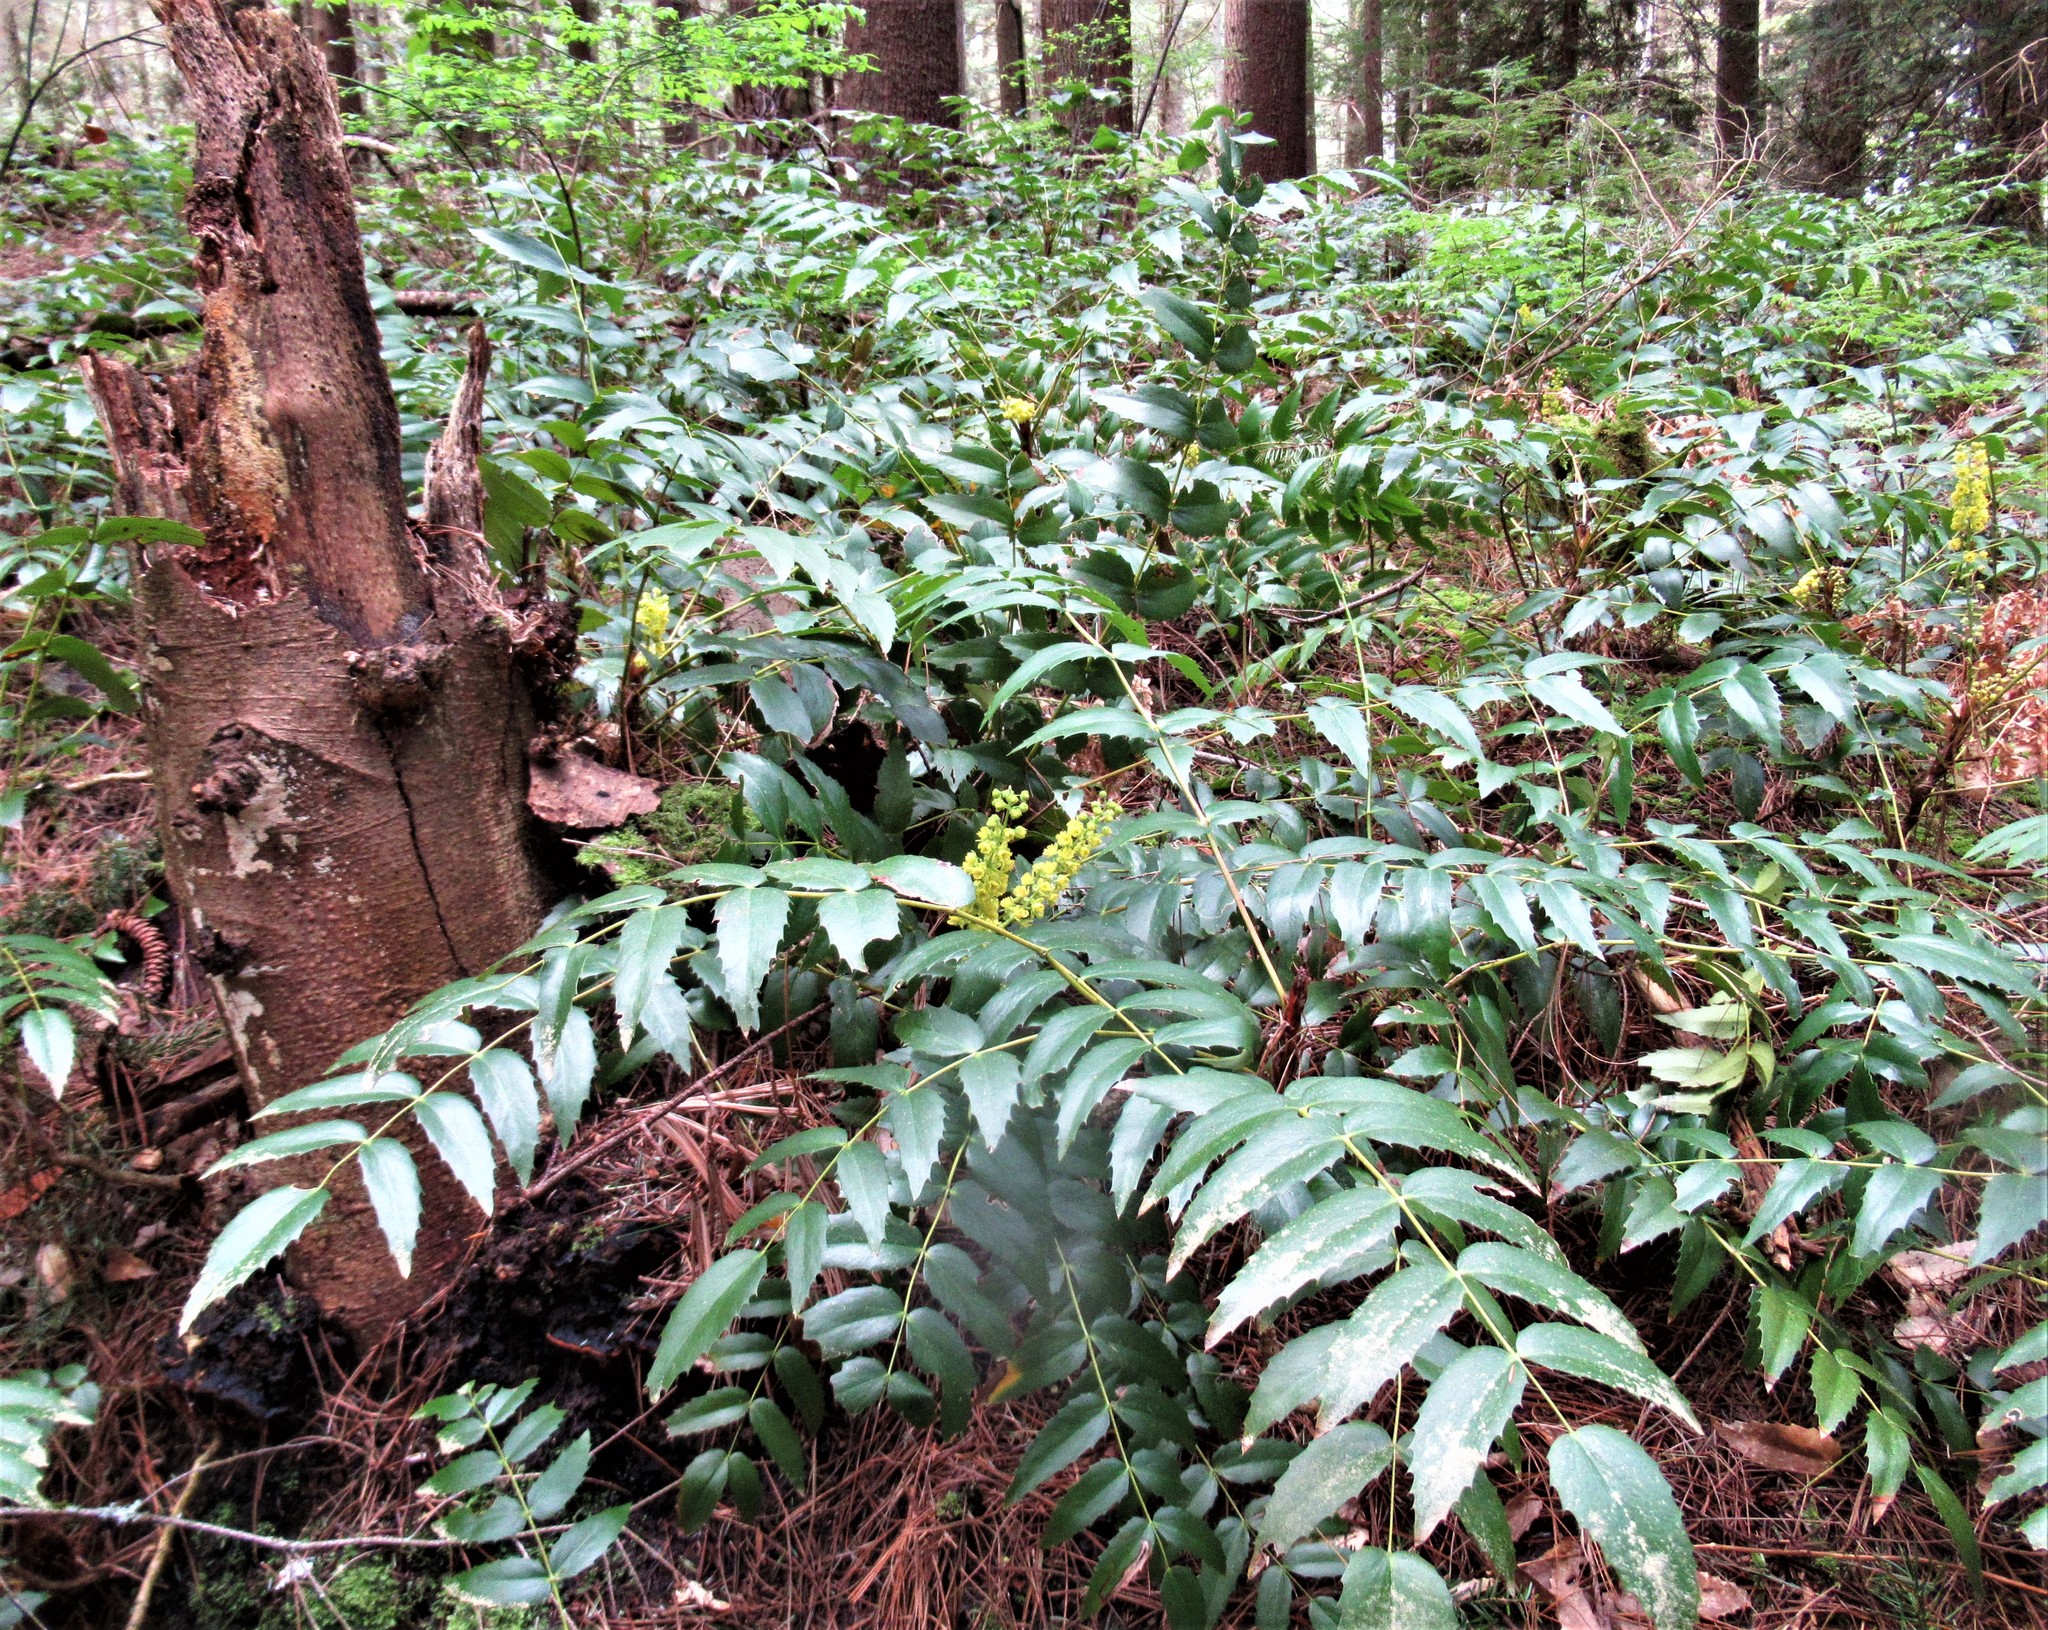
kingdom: Plantae
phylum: Tracheophyta
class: Magnoliopsida
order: Ranunculales
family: Berberidaceae
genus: Mahonia
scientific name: Mahonia nervosa
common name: Cascade oregon-grape
